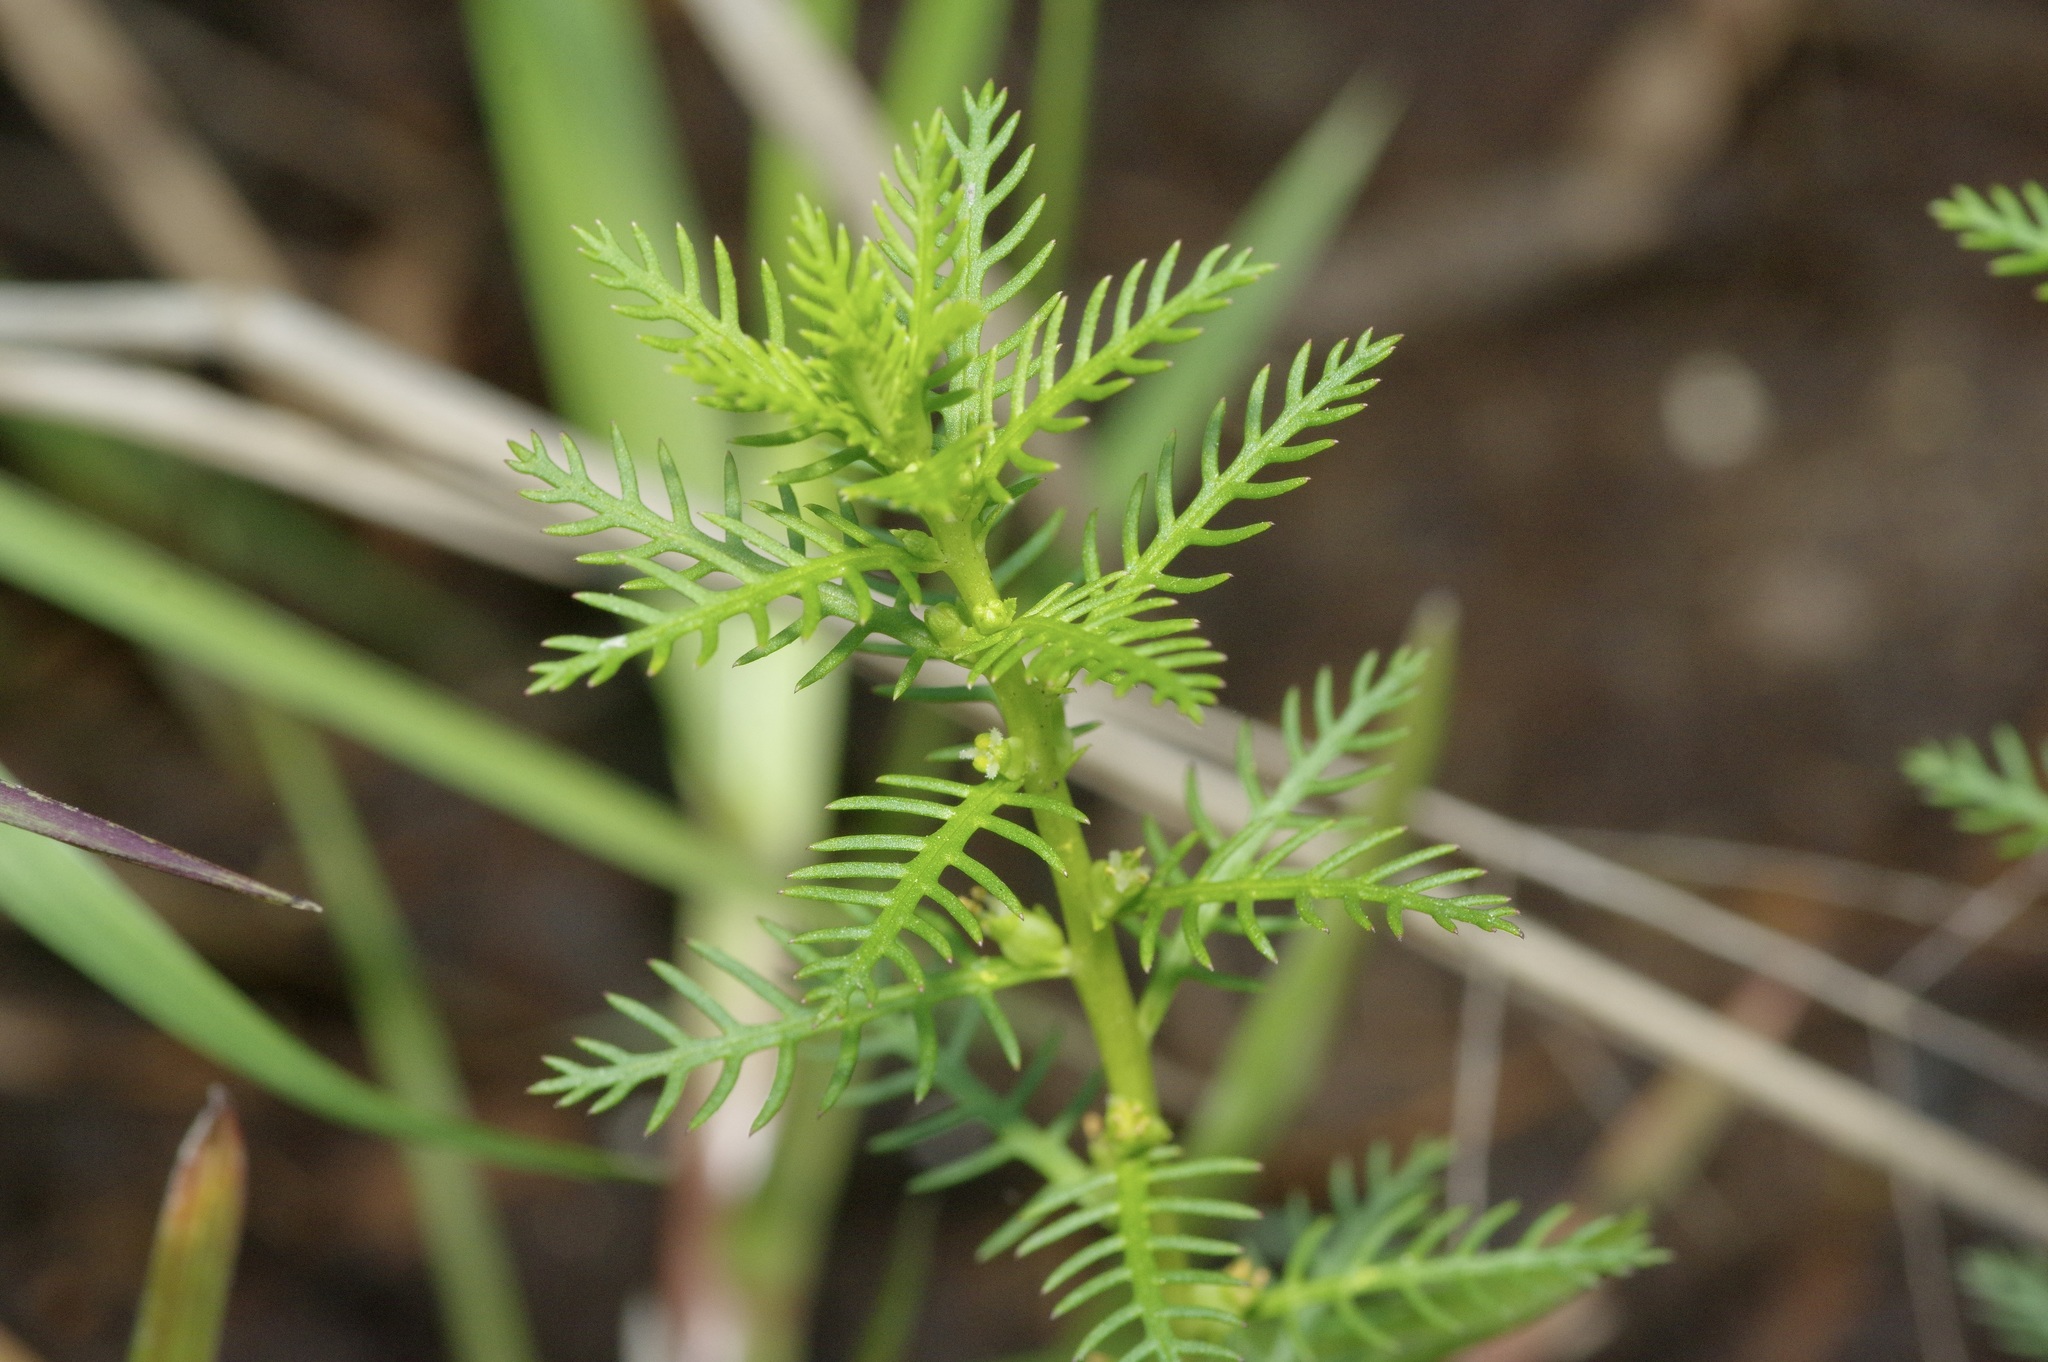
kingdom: Plantae
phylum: Tracheophyta
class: Magnoliopsida
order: Saxifragales
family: Haloragaceae
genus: Proserpinaca
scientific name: Proserpinaca pectinata
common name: Comb-leaved mermaidweed
